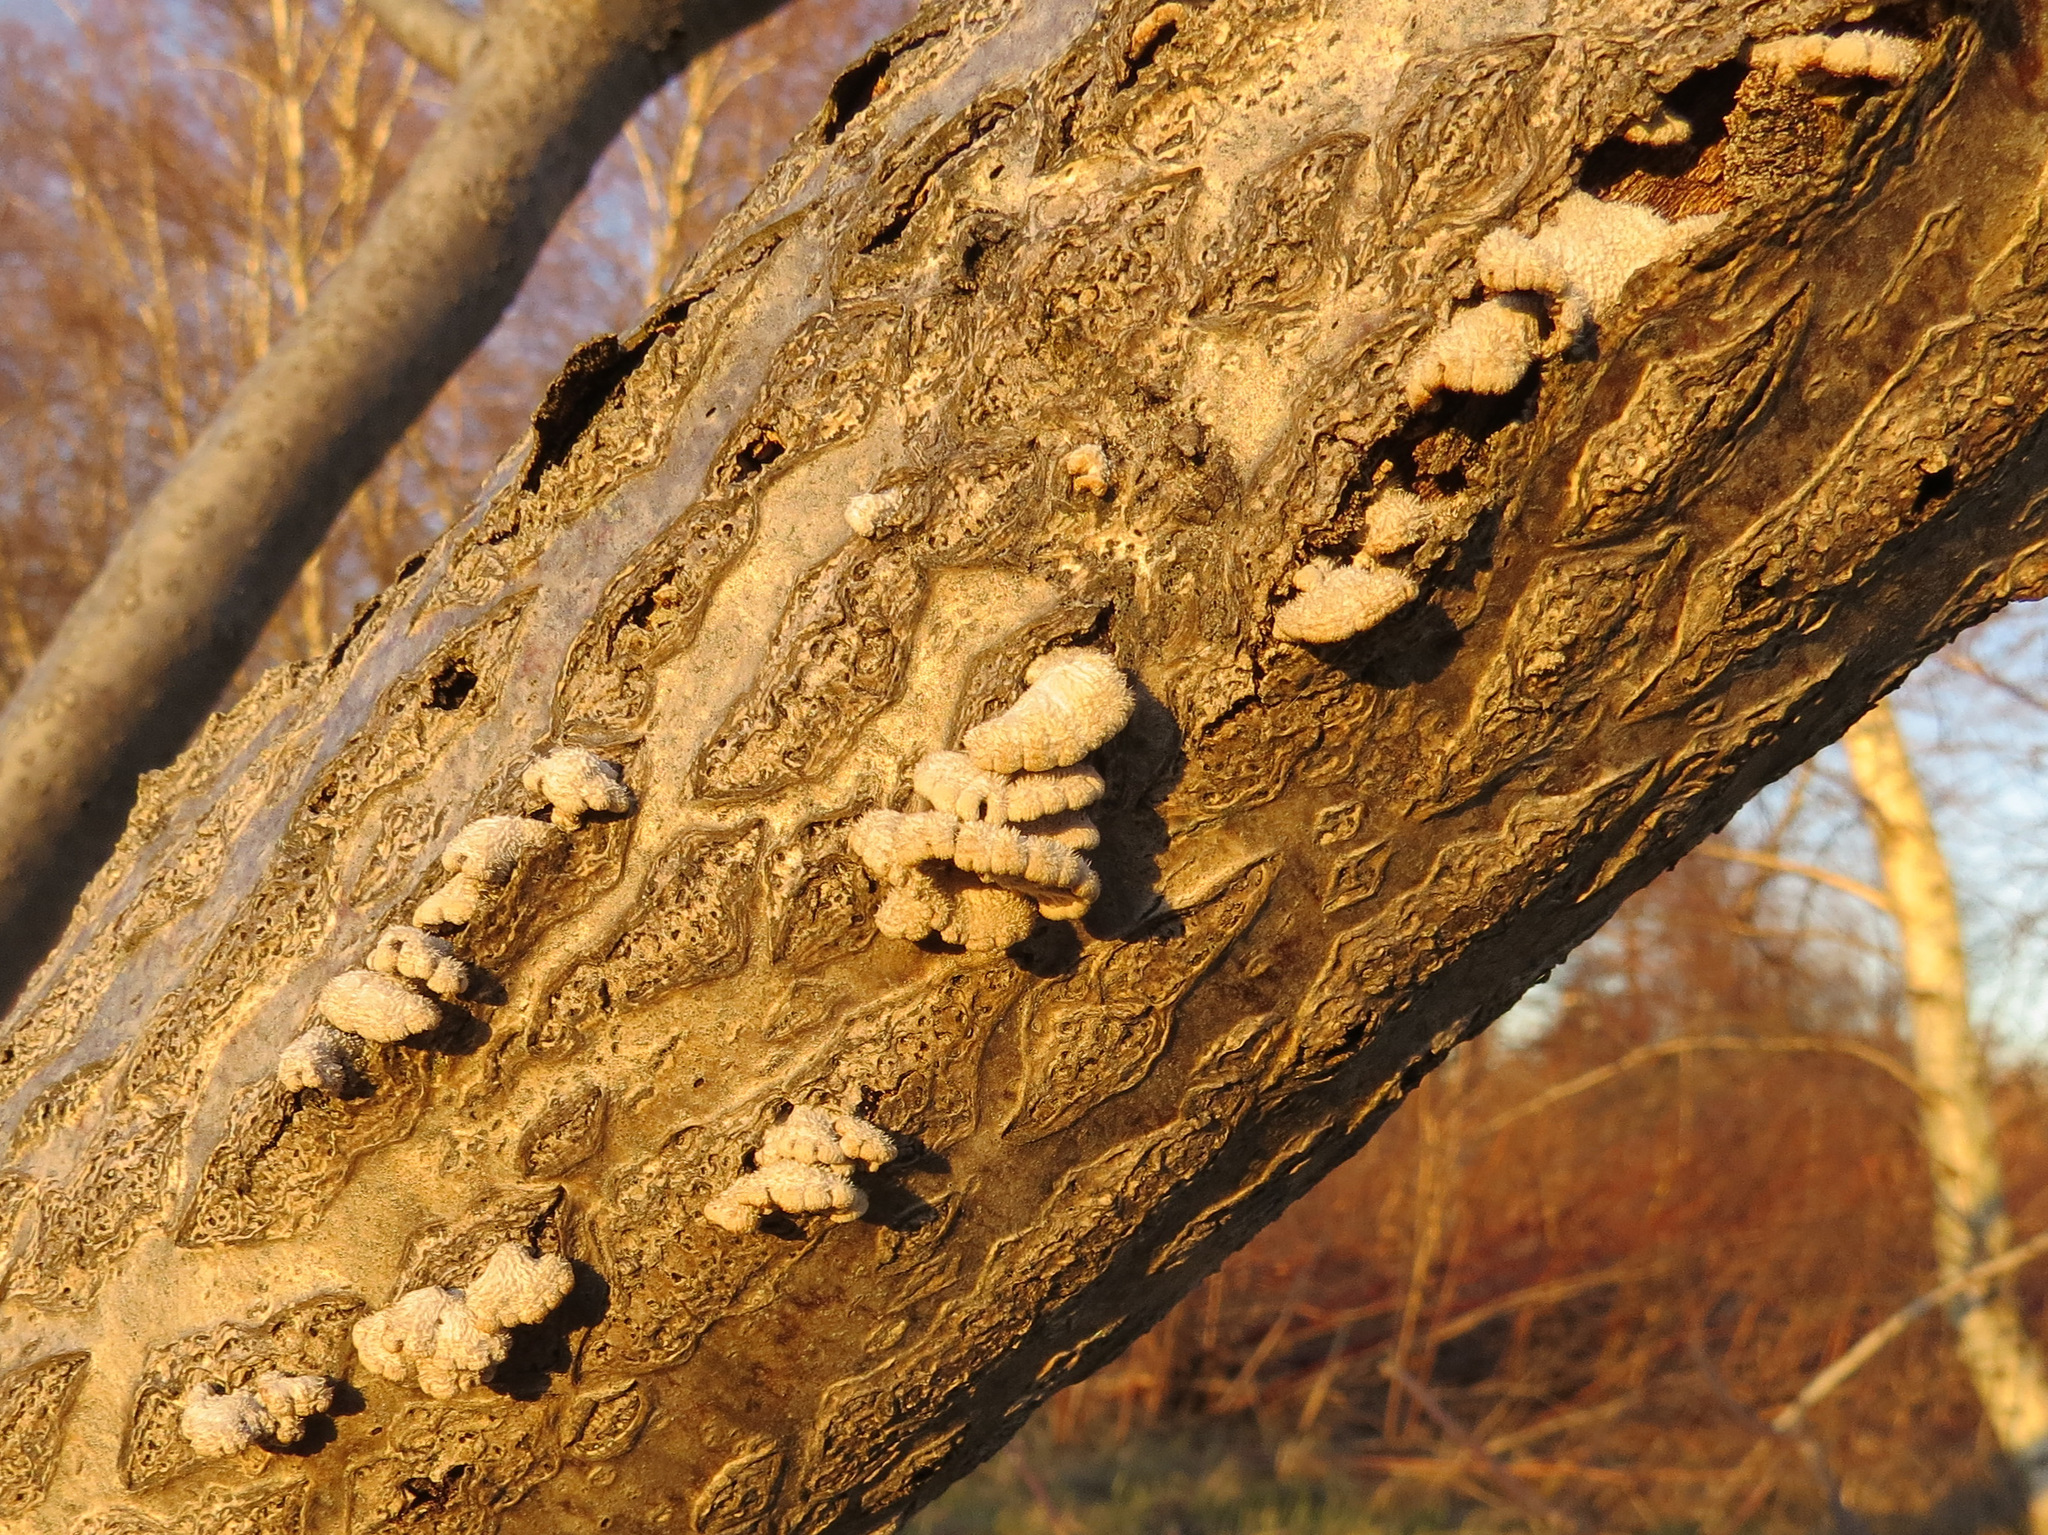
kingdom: Fungi
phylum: Basidiomycota
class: Agaricomycetes
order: Agaricales
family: Schizophyllaceae
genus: Schizophyllum
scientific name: Schizophyllum commune
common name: Common porecrust
